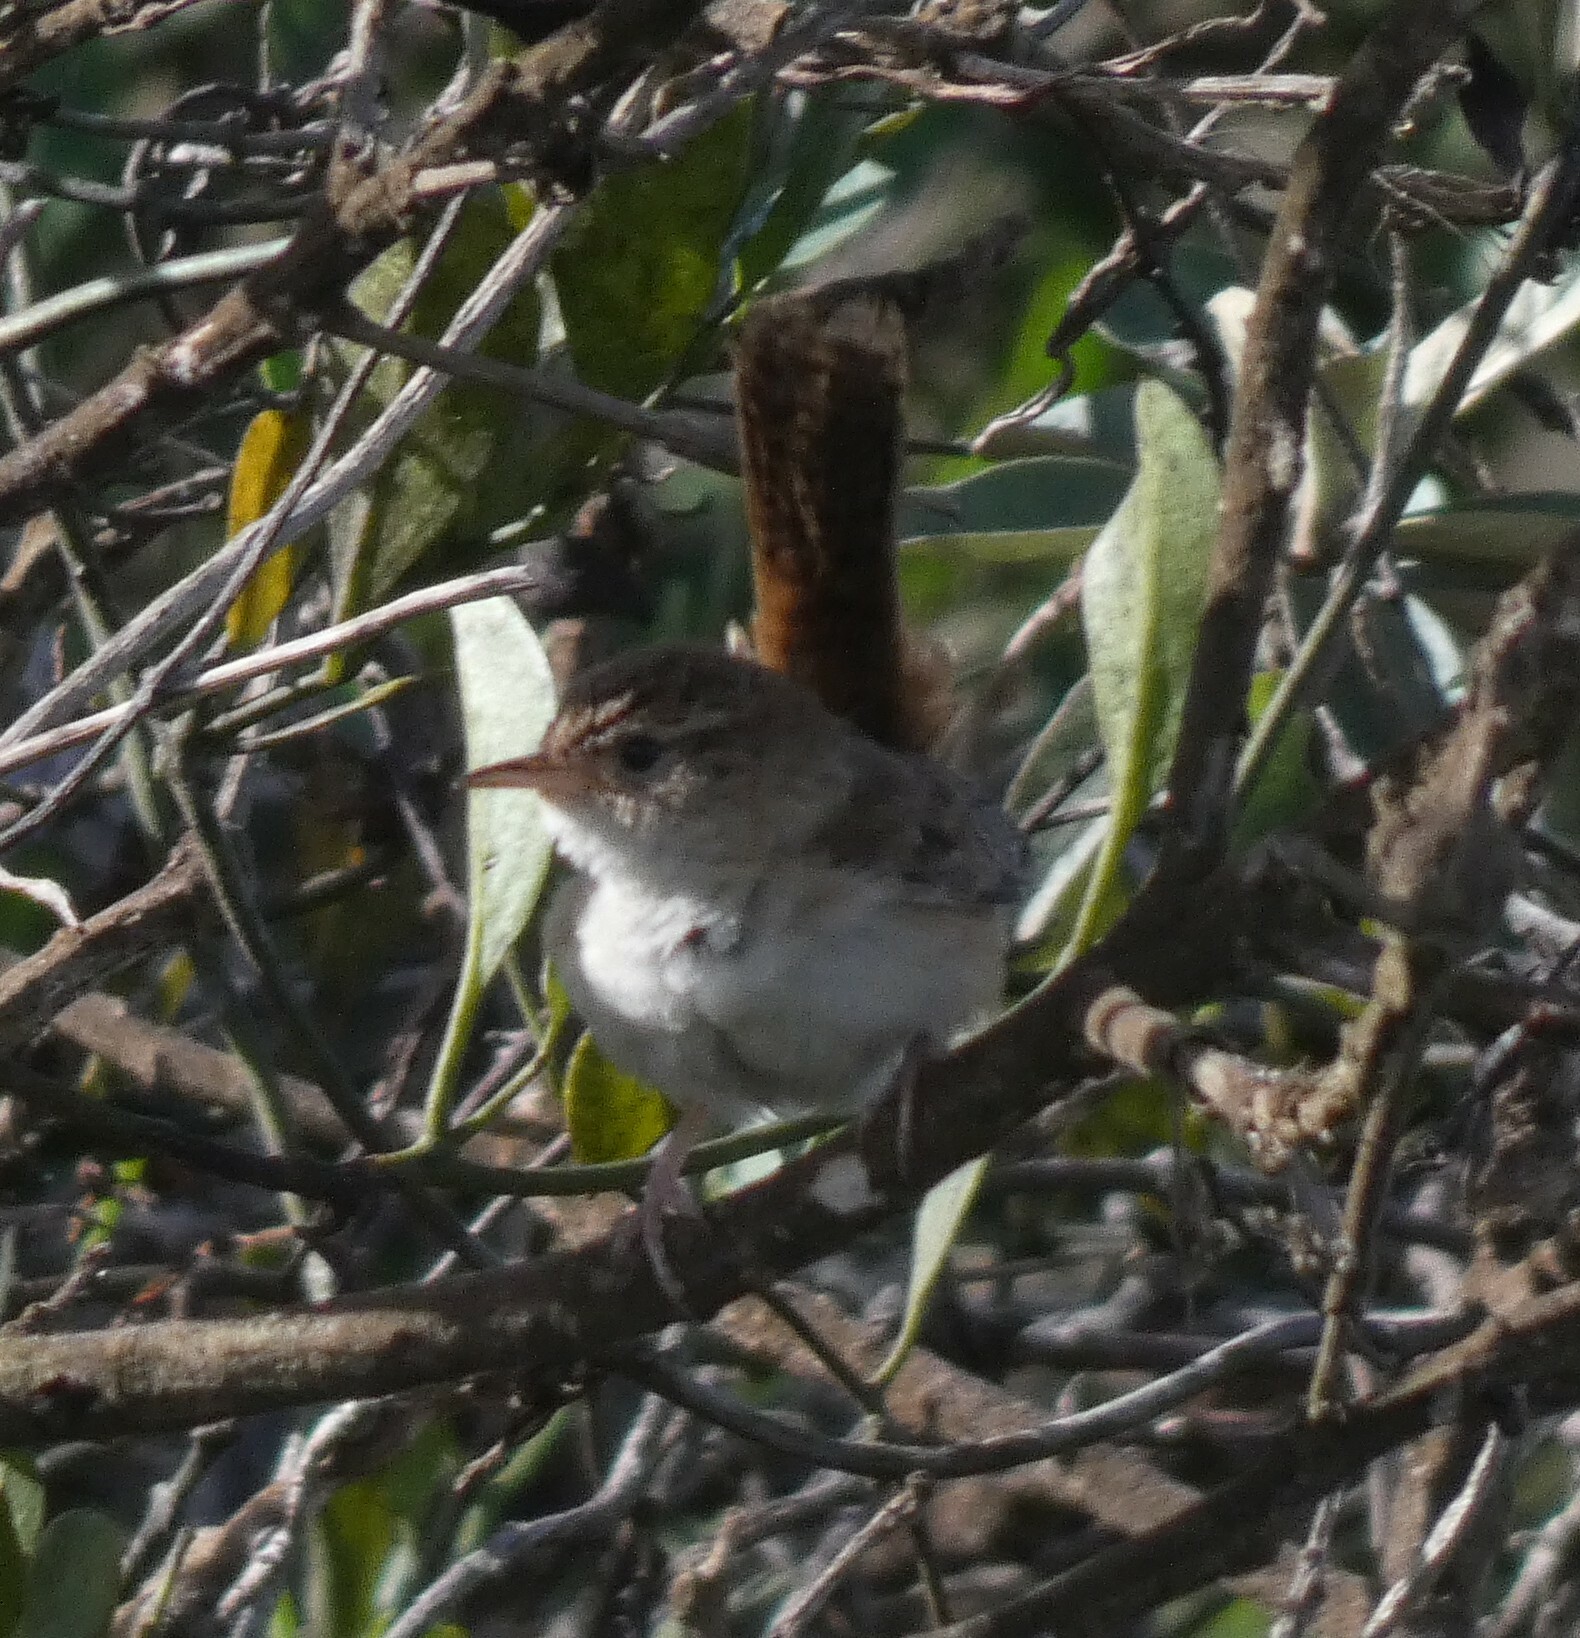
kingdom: Animalia
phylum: Chordata
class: Aves
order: Passeriformes
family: Troglodytidae
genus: Cistothorus
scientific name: Cistothorus platensis
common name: Sedge wren
